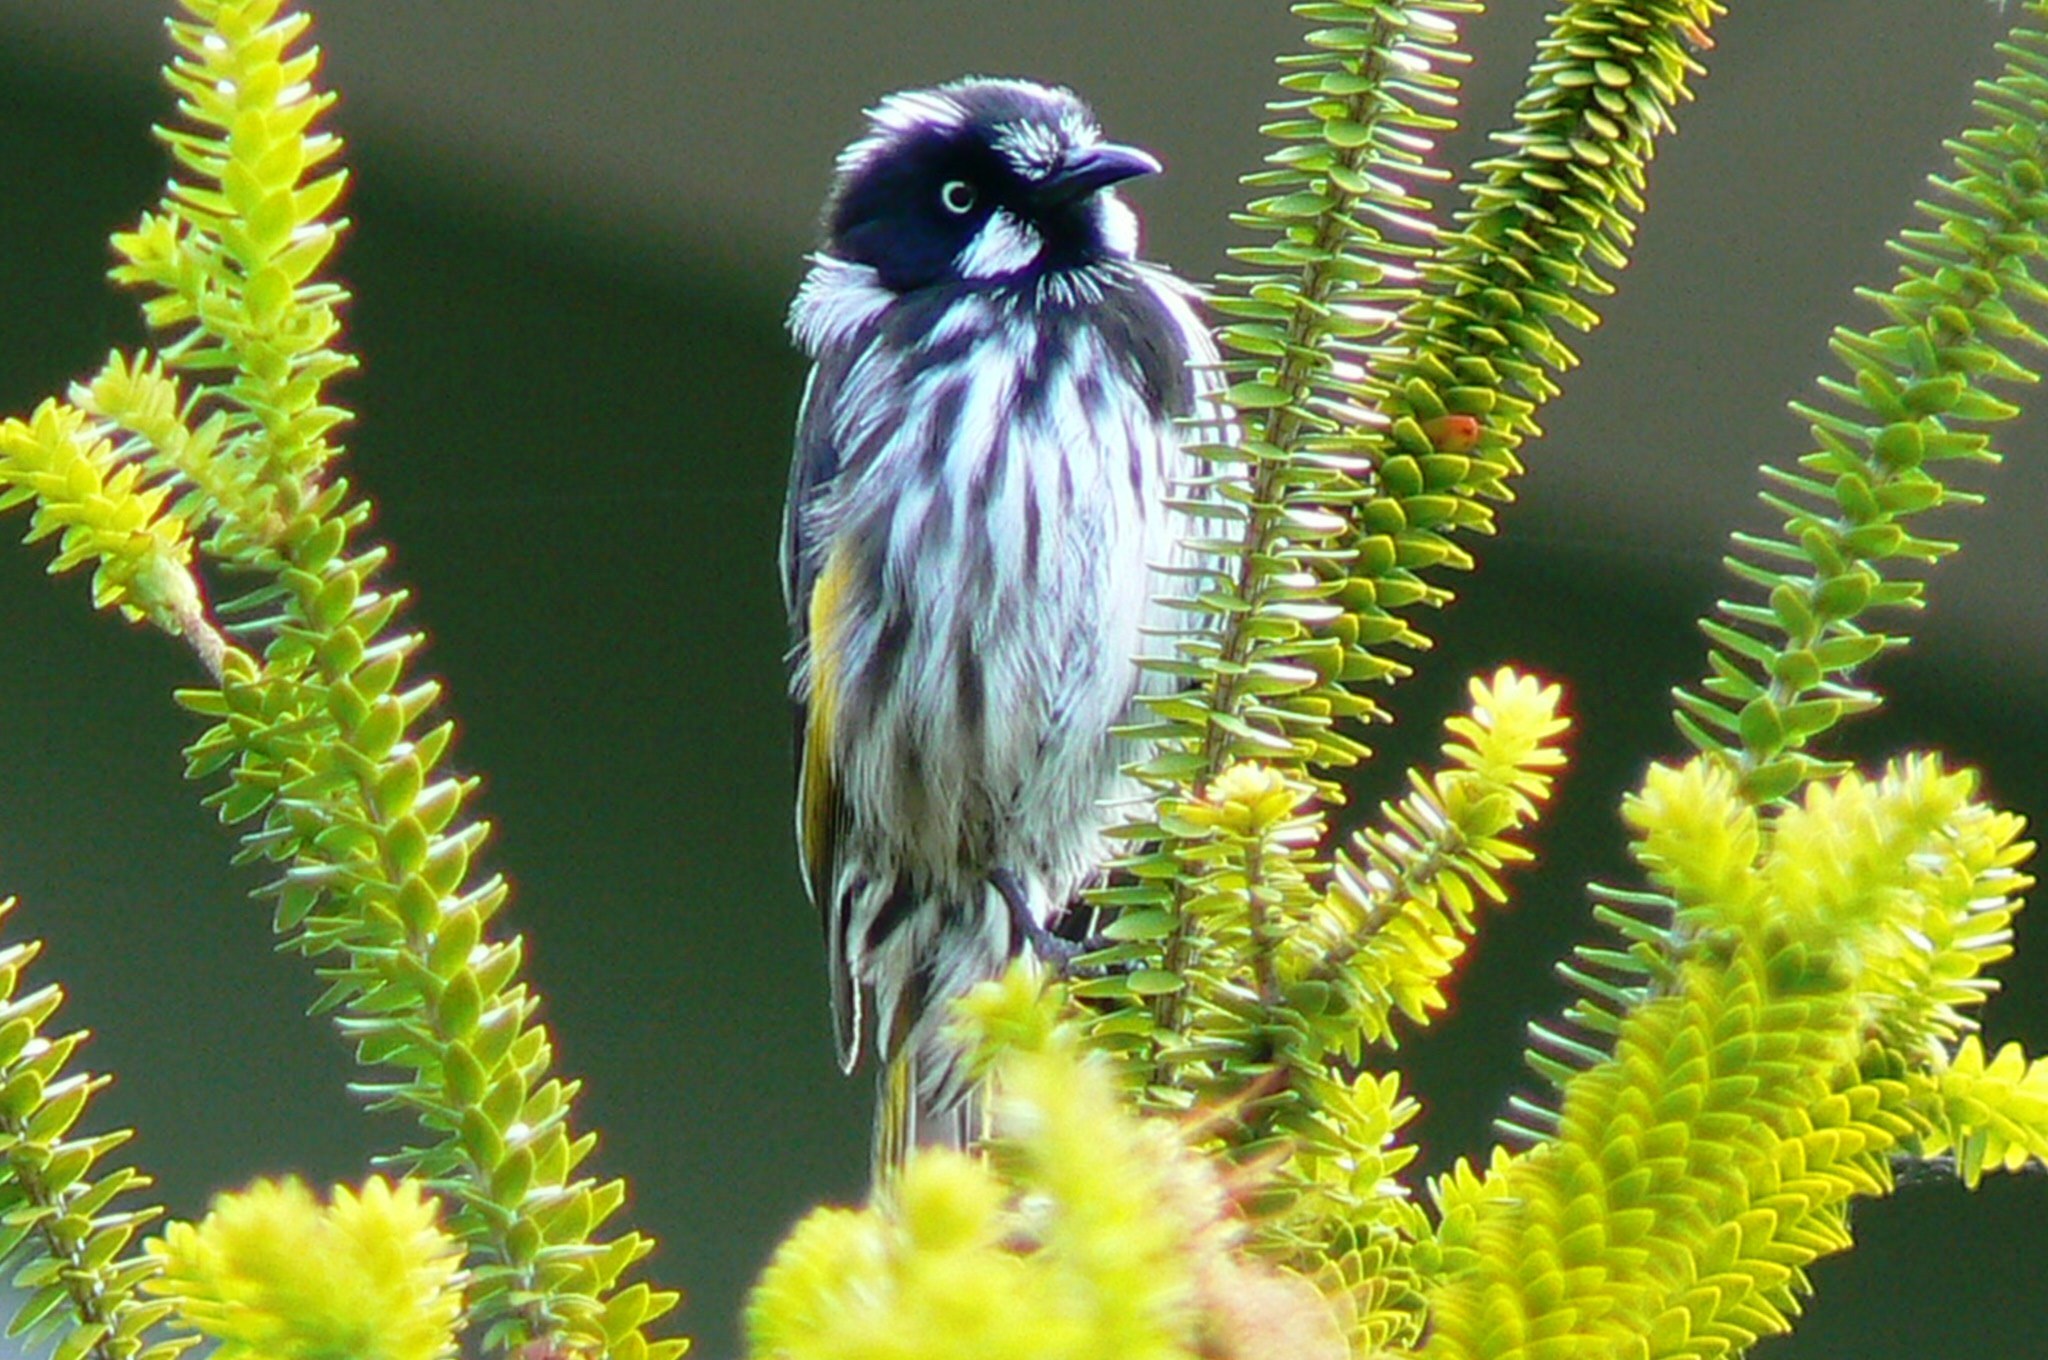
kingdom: Animalia
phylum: Chordata
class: Aves
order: Passeriformes
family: Meliphagidae
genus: Phylidonyris
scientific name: Phylidonyris novaehollandiae
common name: New holland honeyeater
